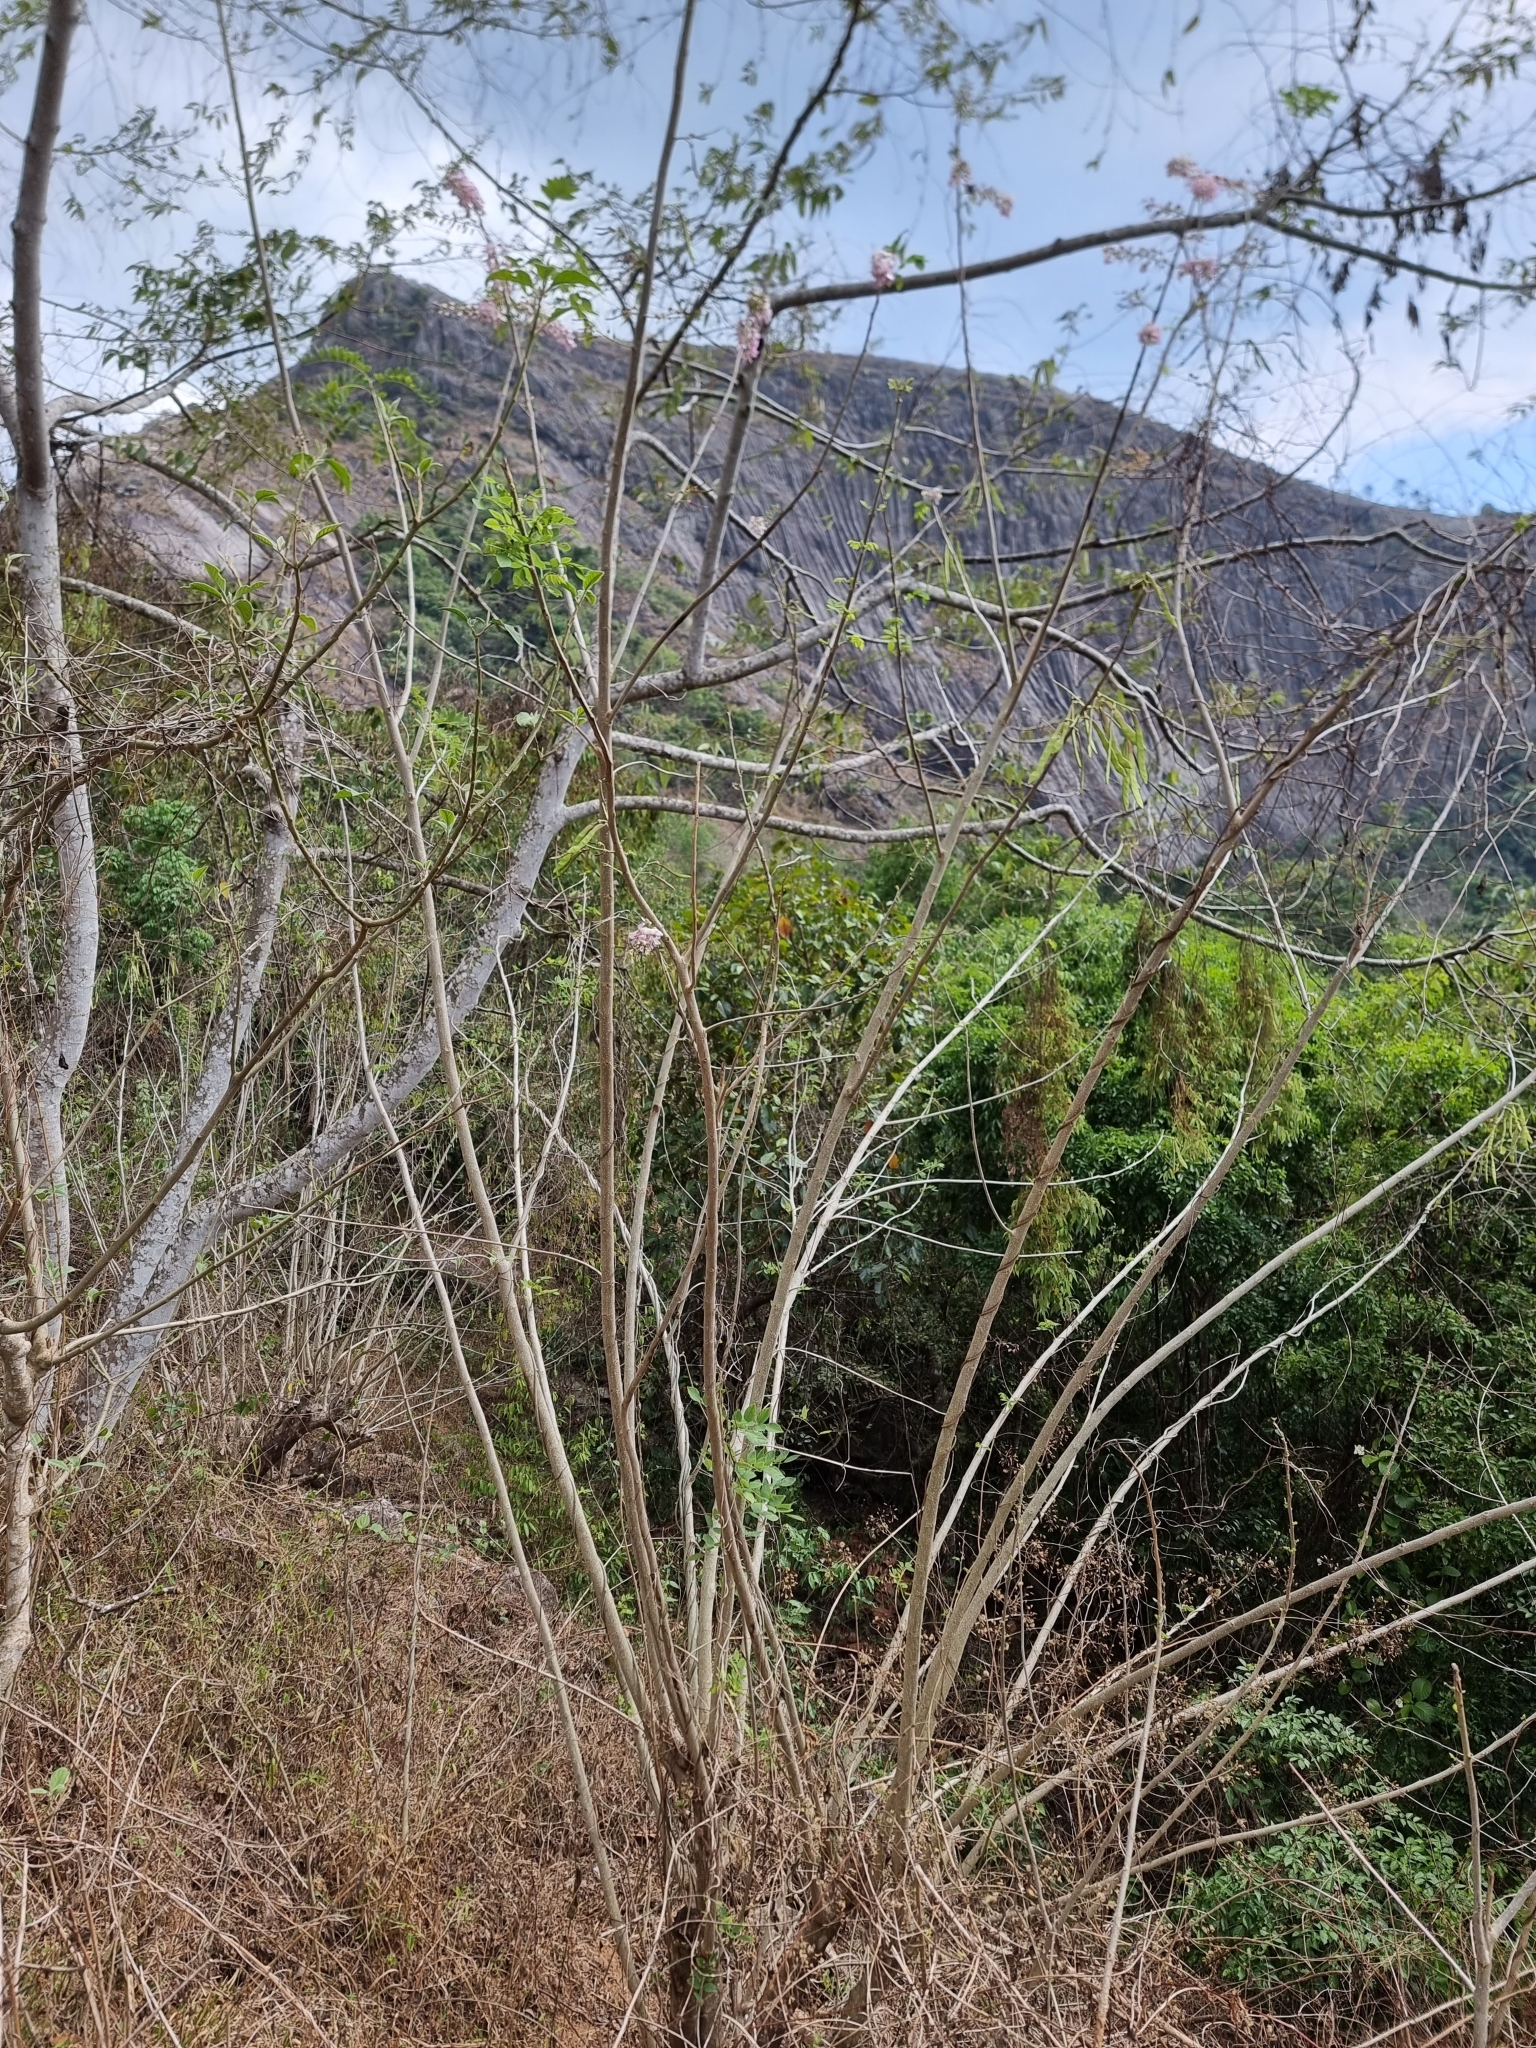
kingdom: Plantae
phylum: Tracheophyta
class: Magnoliopsida
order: Fabales
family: Fabaceae
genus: Gliricidia
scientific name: Gliricidia sepium
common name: Quickstick
